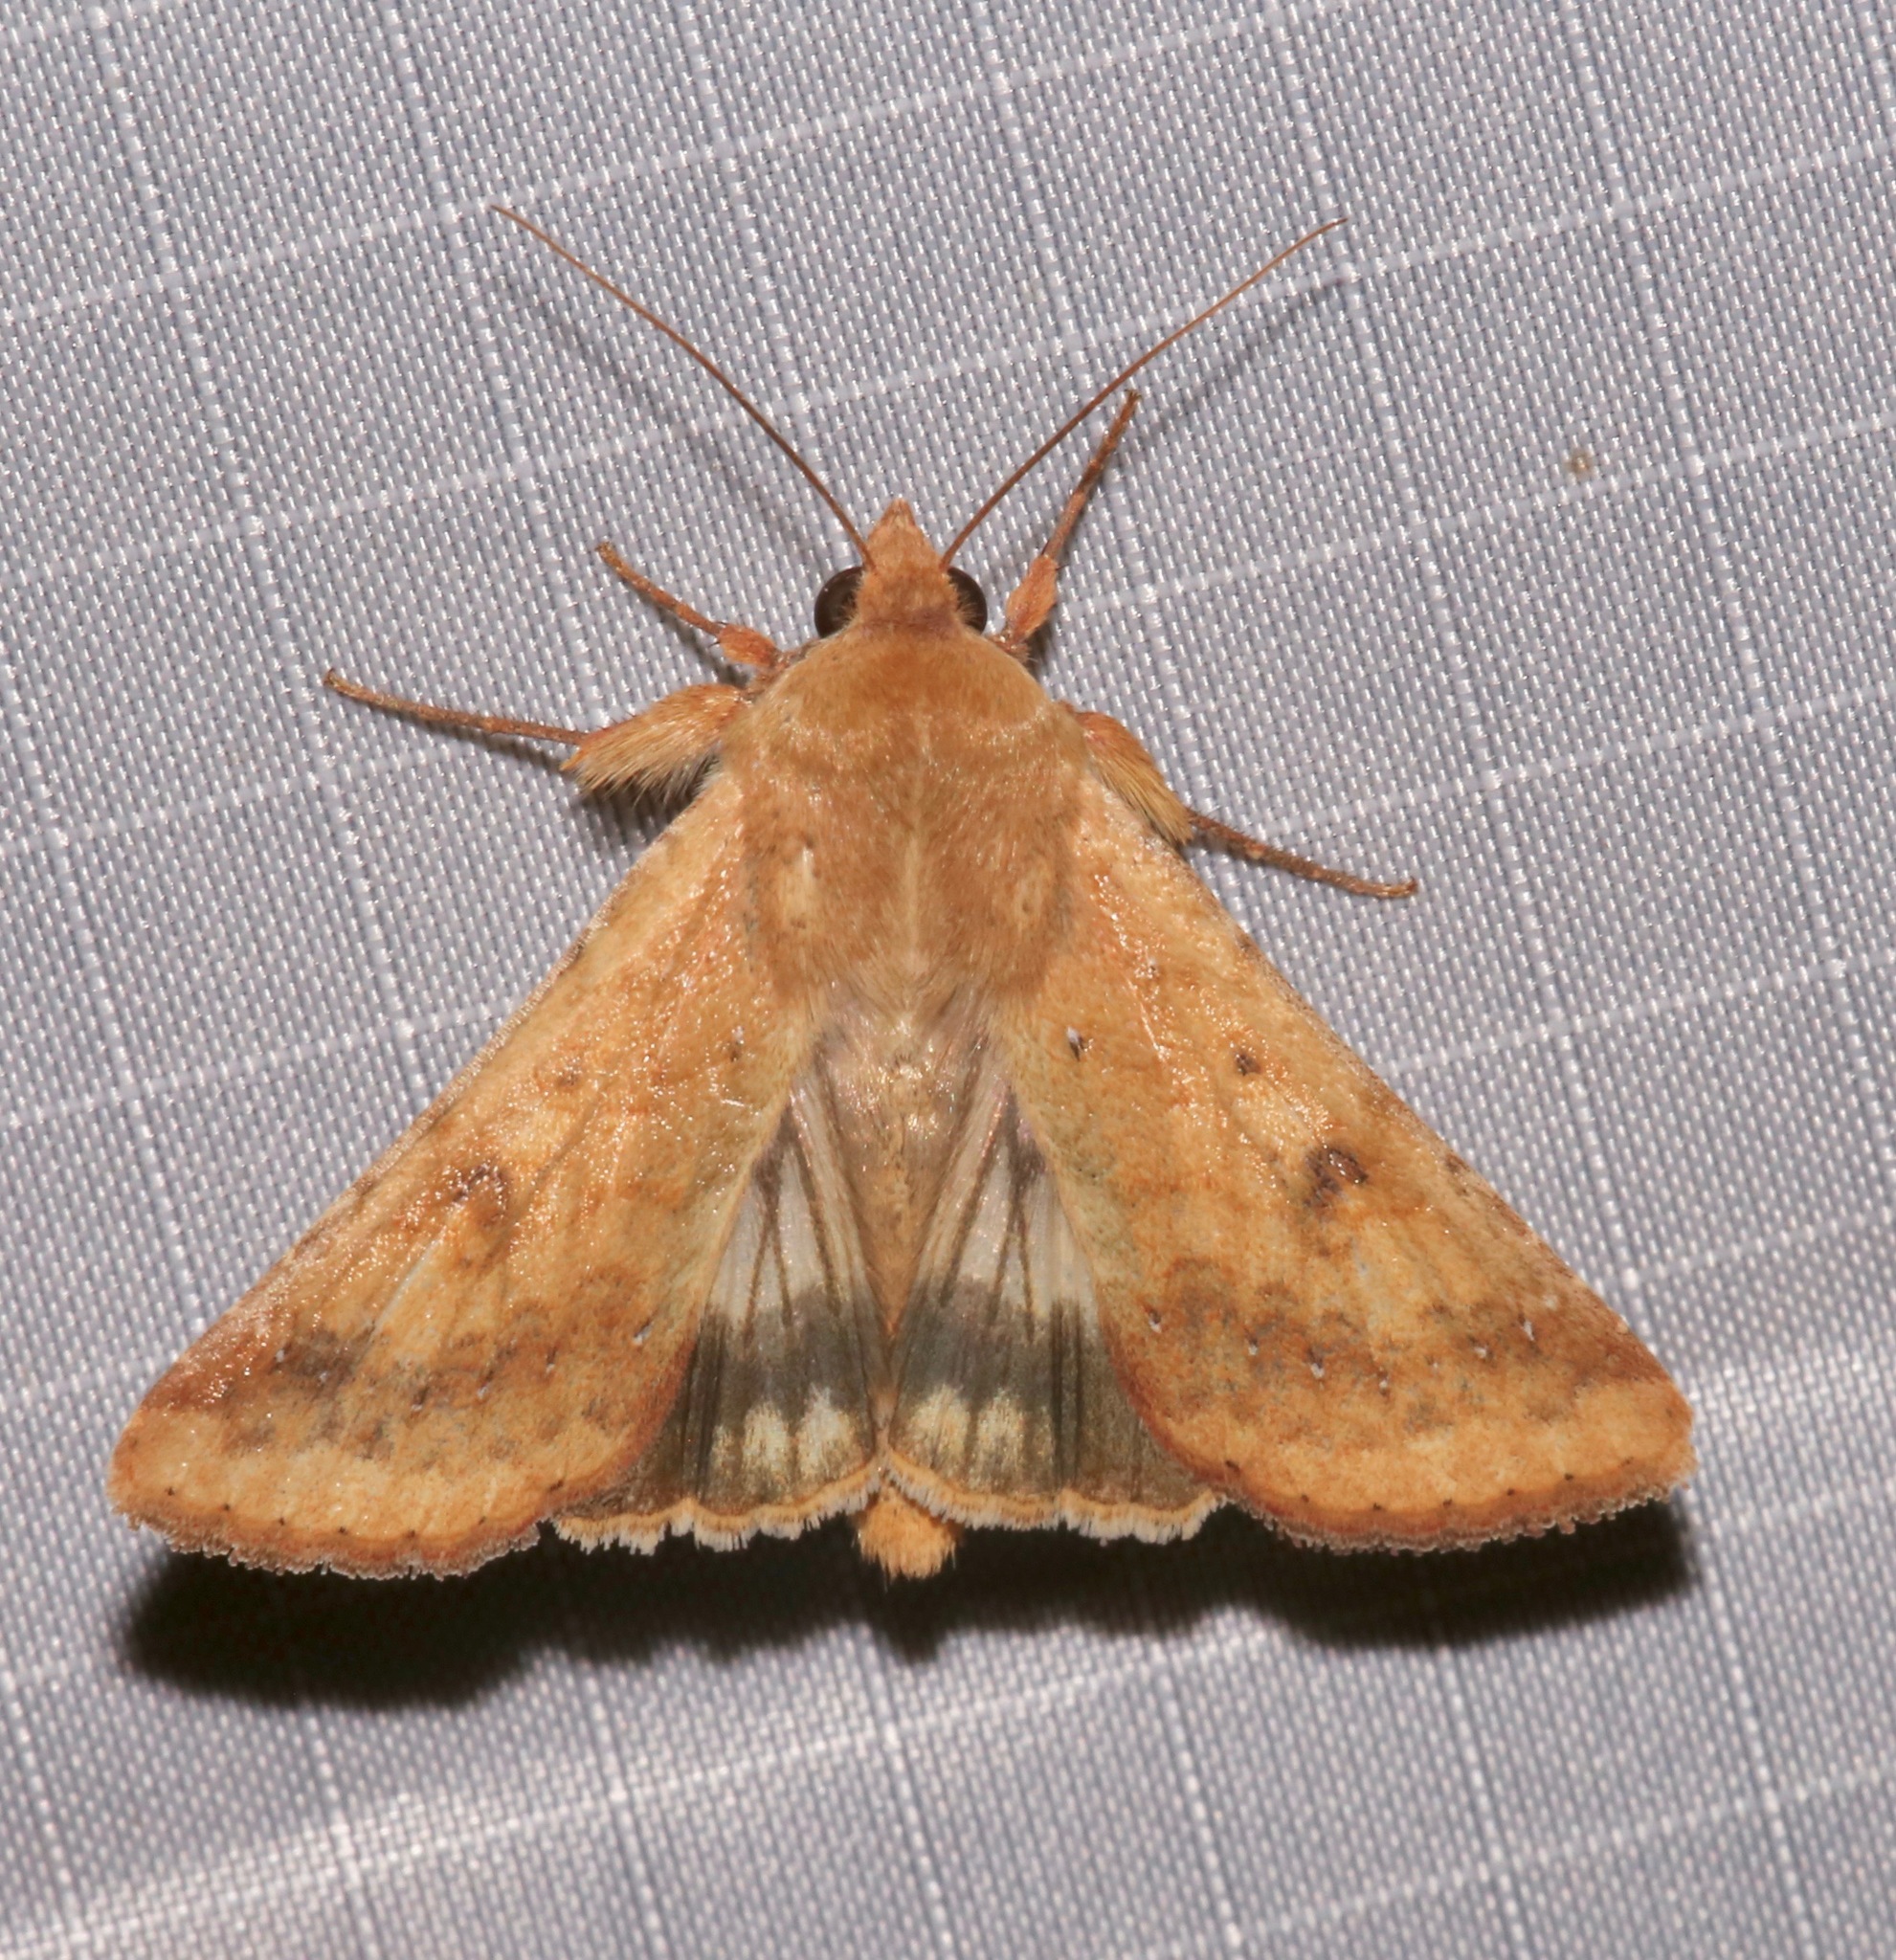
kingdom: Animalia
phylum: Arthropoda
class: Insecta
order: Lepidoptera
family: Noctuidae
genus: Helicoverpa
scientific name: Helicoverpa zea
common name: Bollworm
